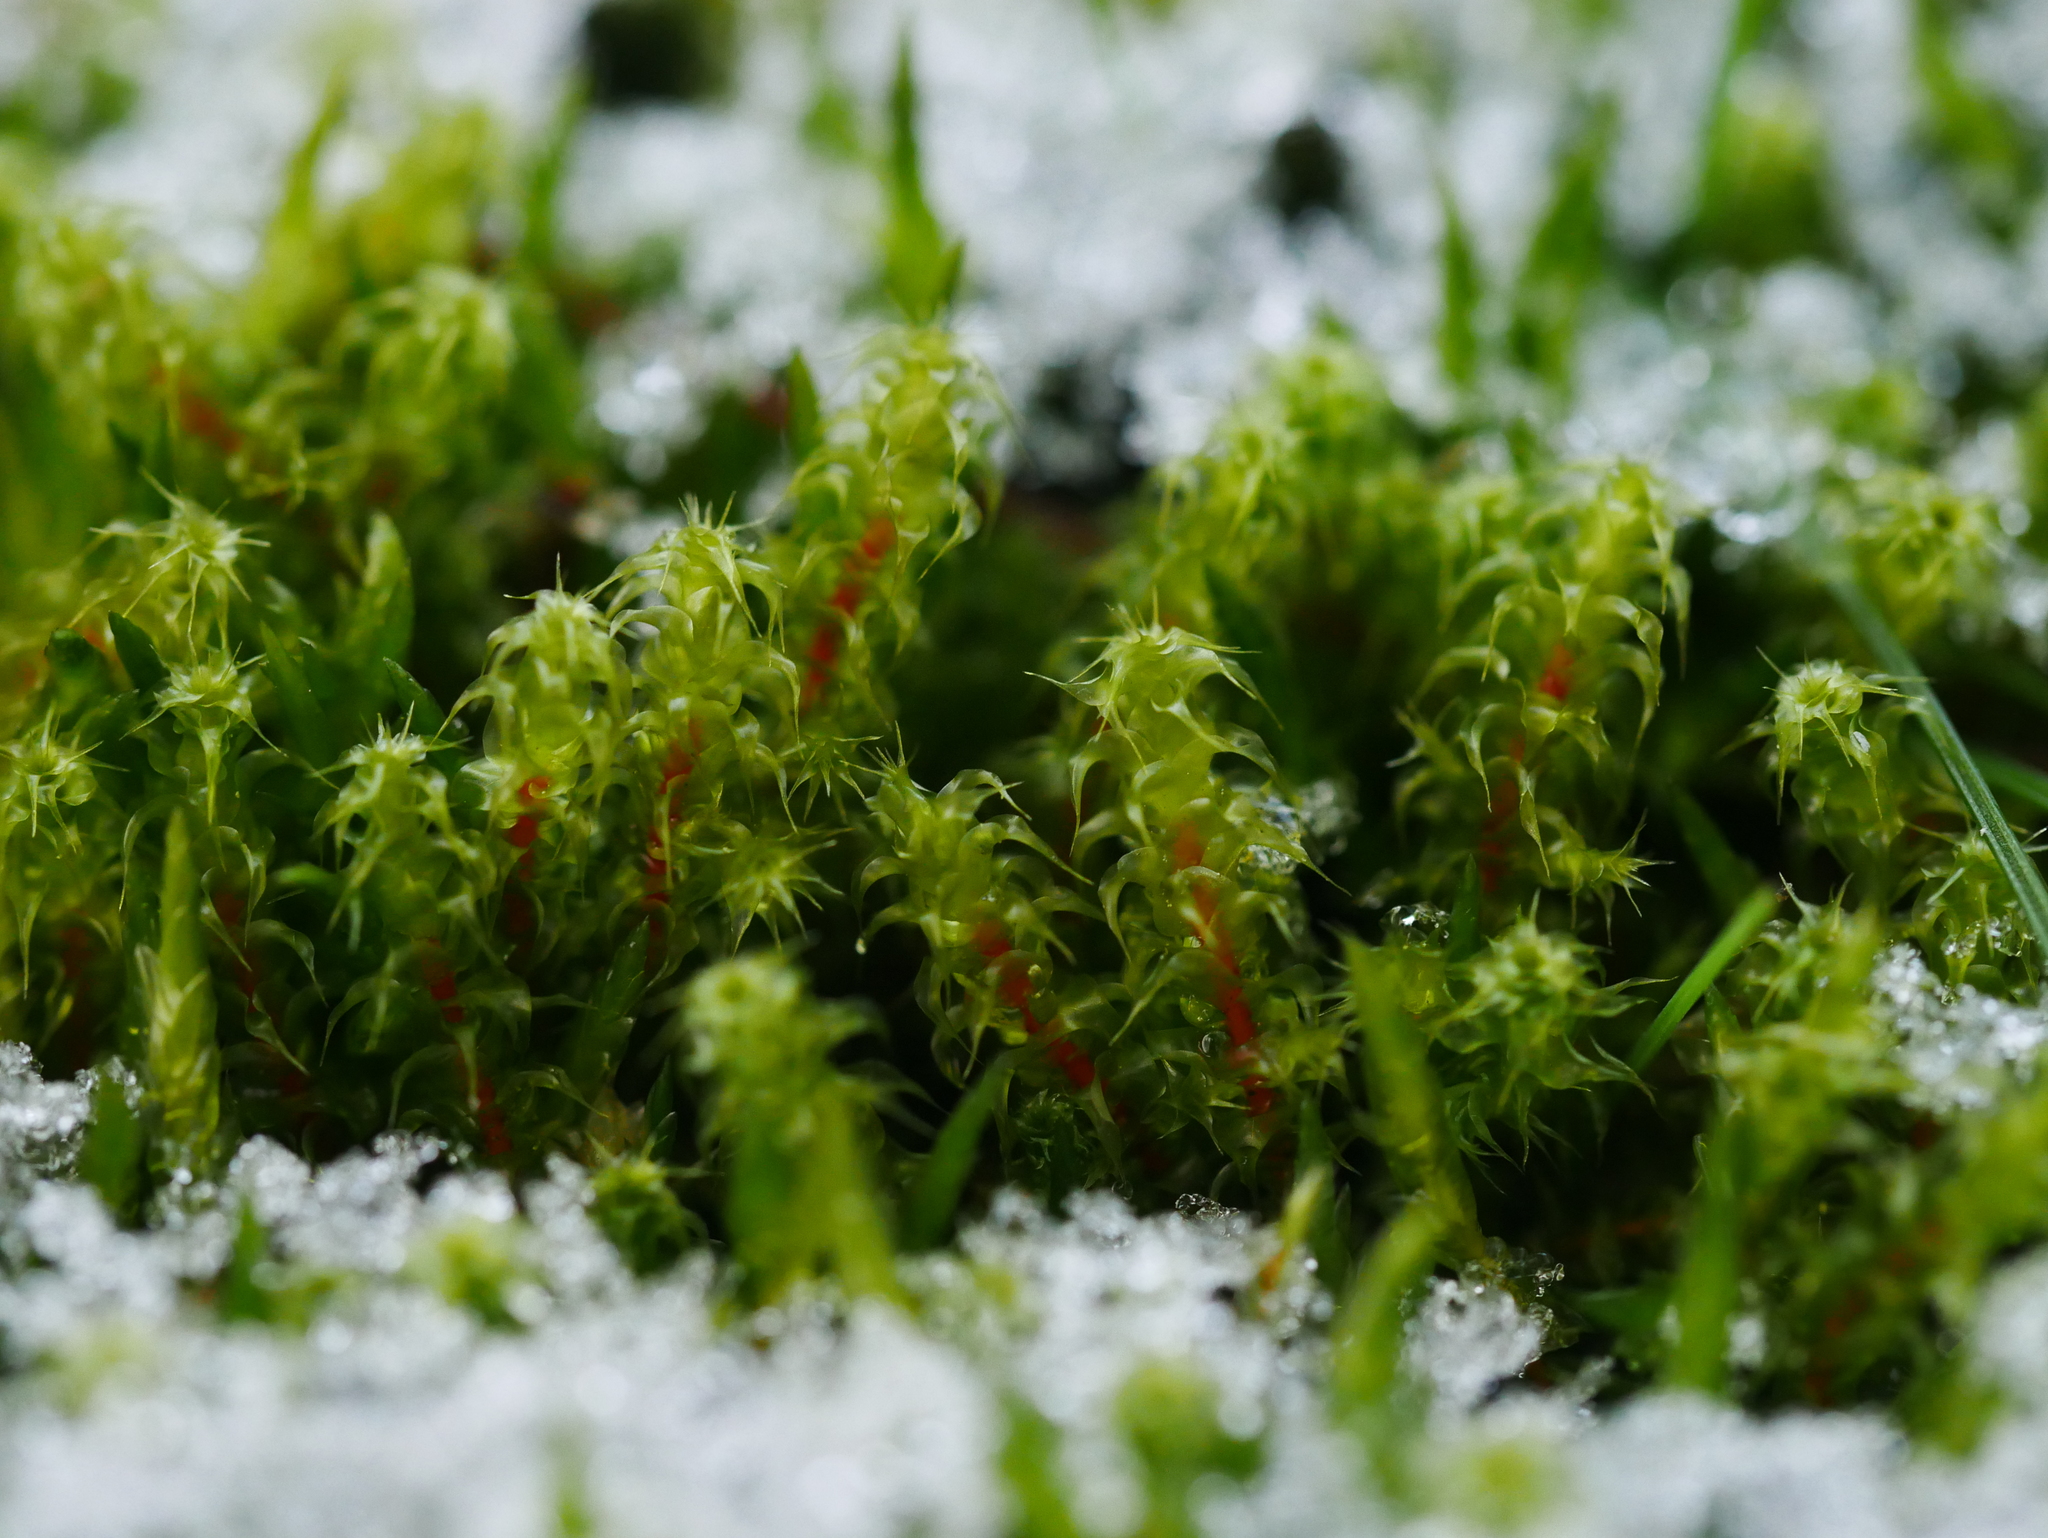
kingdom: Plantae
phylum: Bryophyta
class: Bryopsida
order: Hypnales
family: Hylocomiaceae
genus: Rhytidiadelphus
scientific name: Rhytidiadelphus squarrosus
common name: Springy turf-moss
